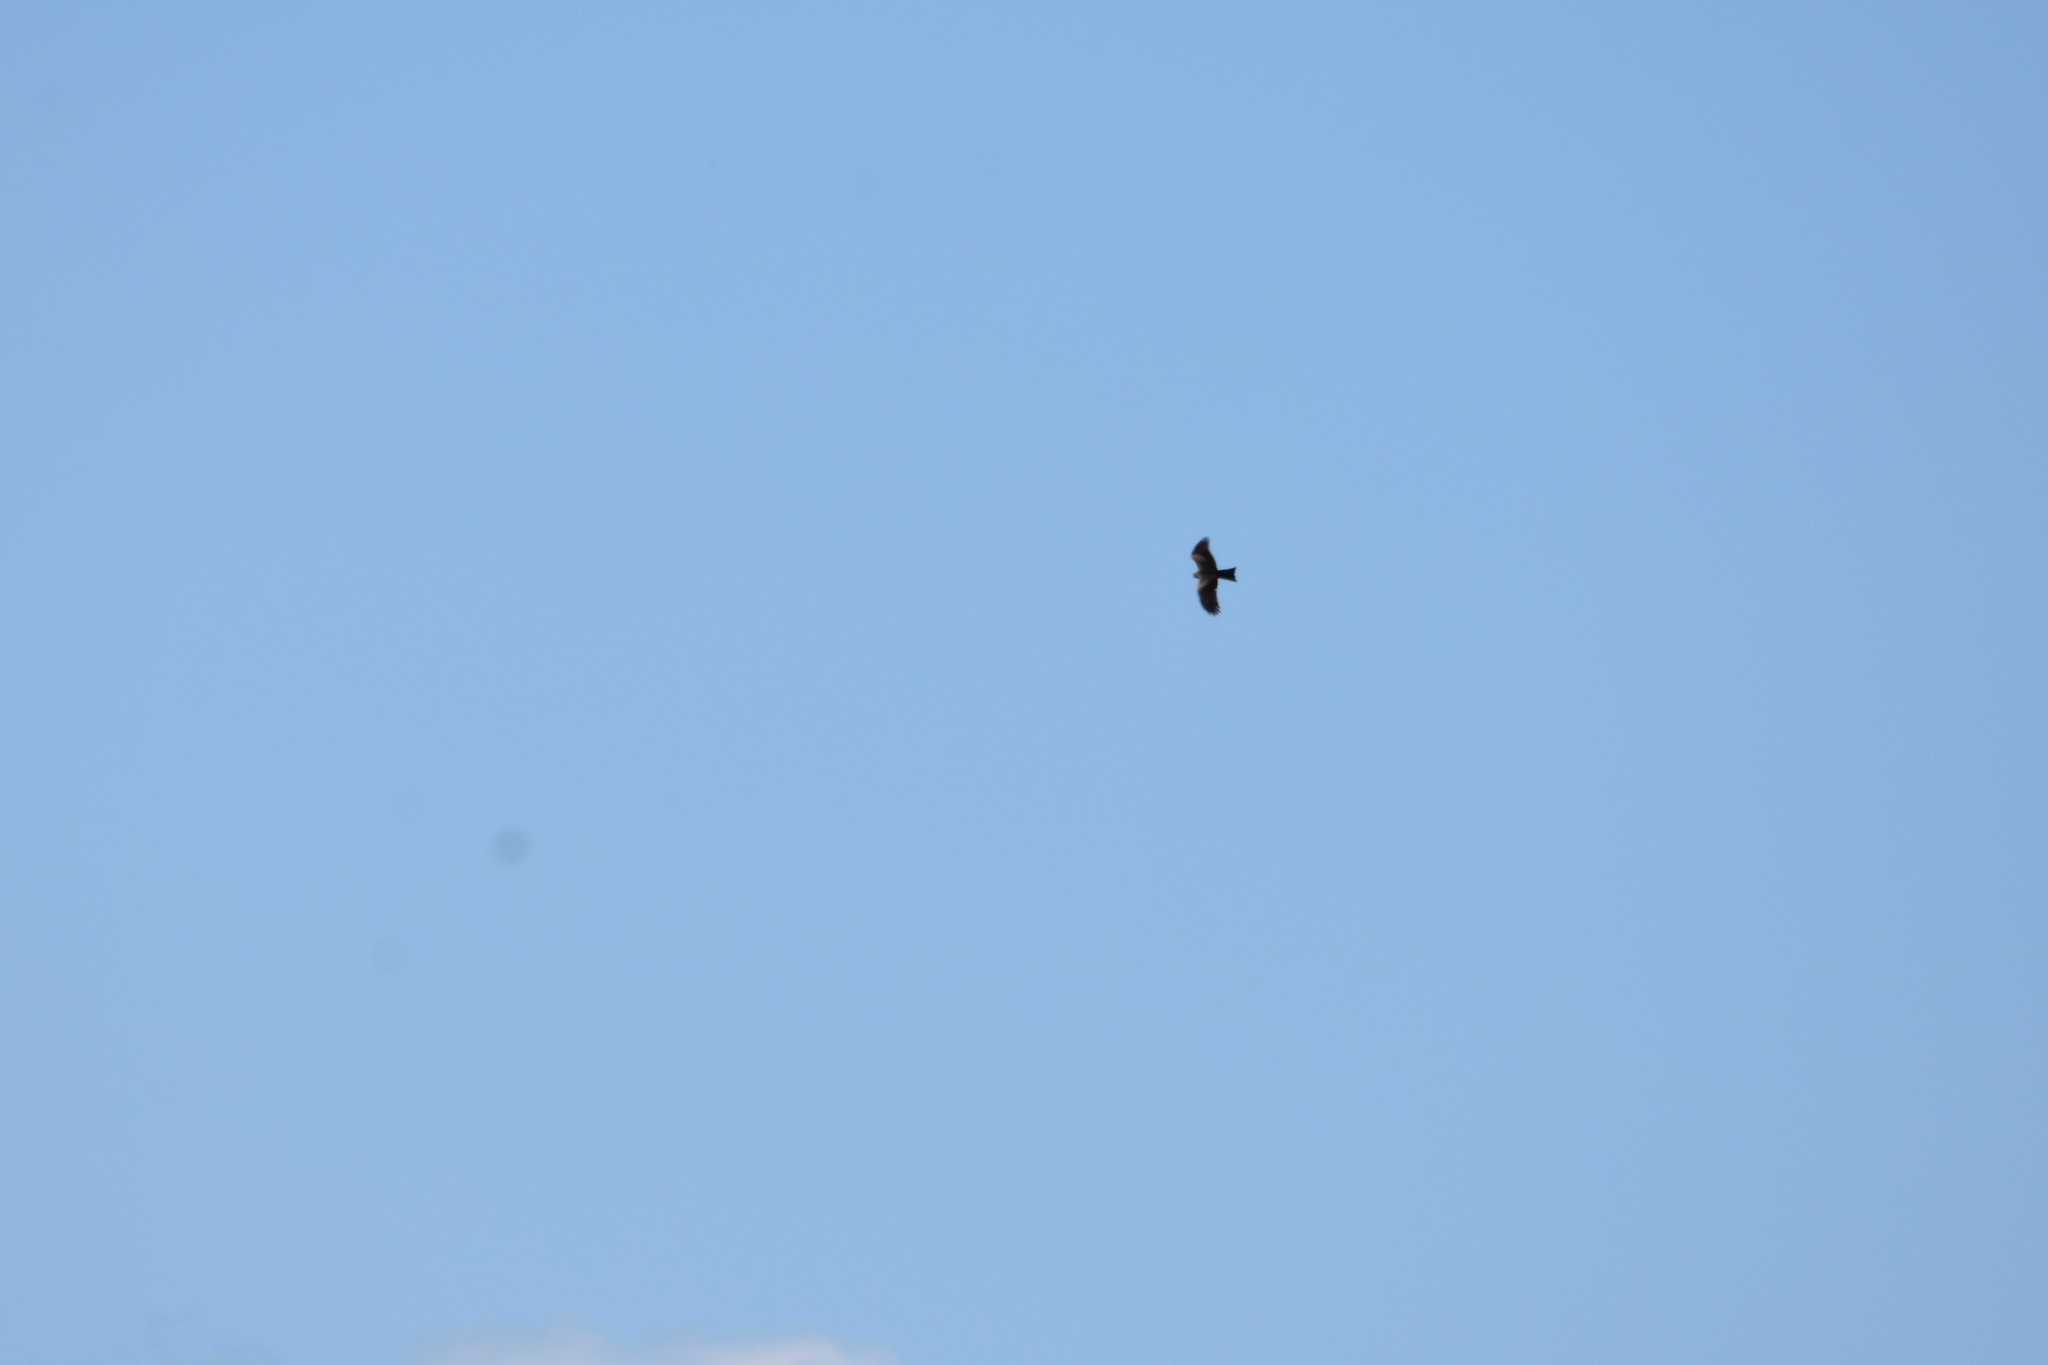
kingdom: Animalia
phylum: Chordata
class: Aves
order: Accipitriformes
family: Accipitridae
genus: Milvus
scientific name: Milvus migrans
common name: Black kite
